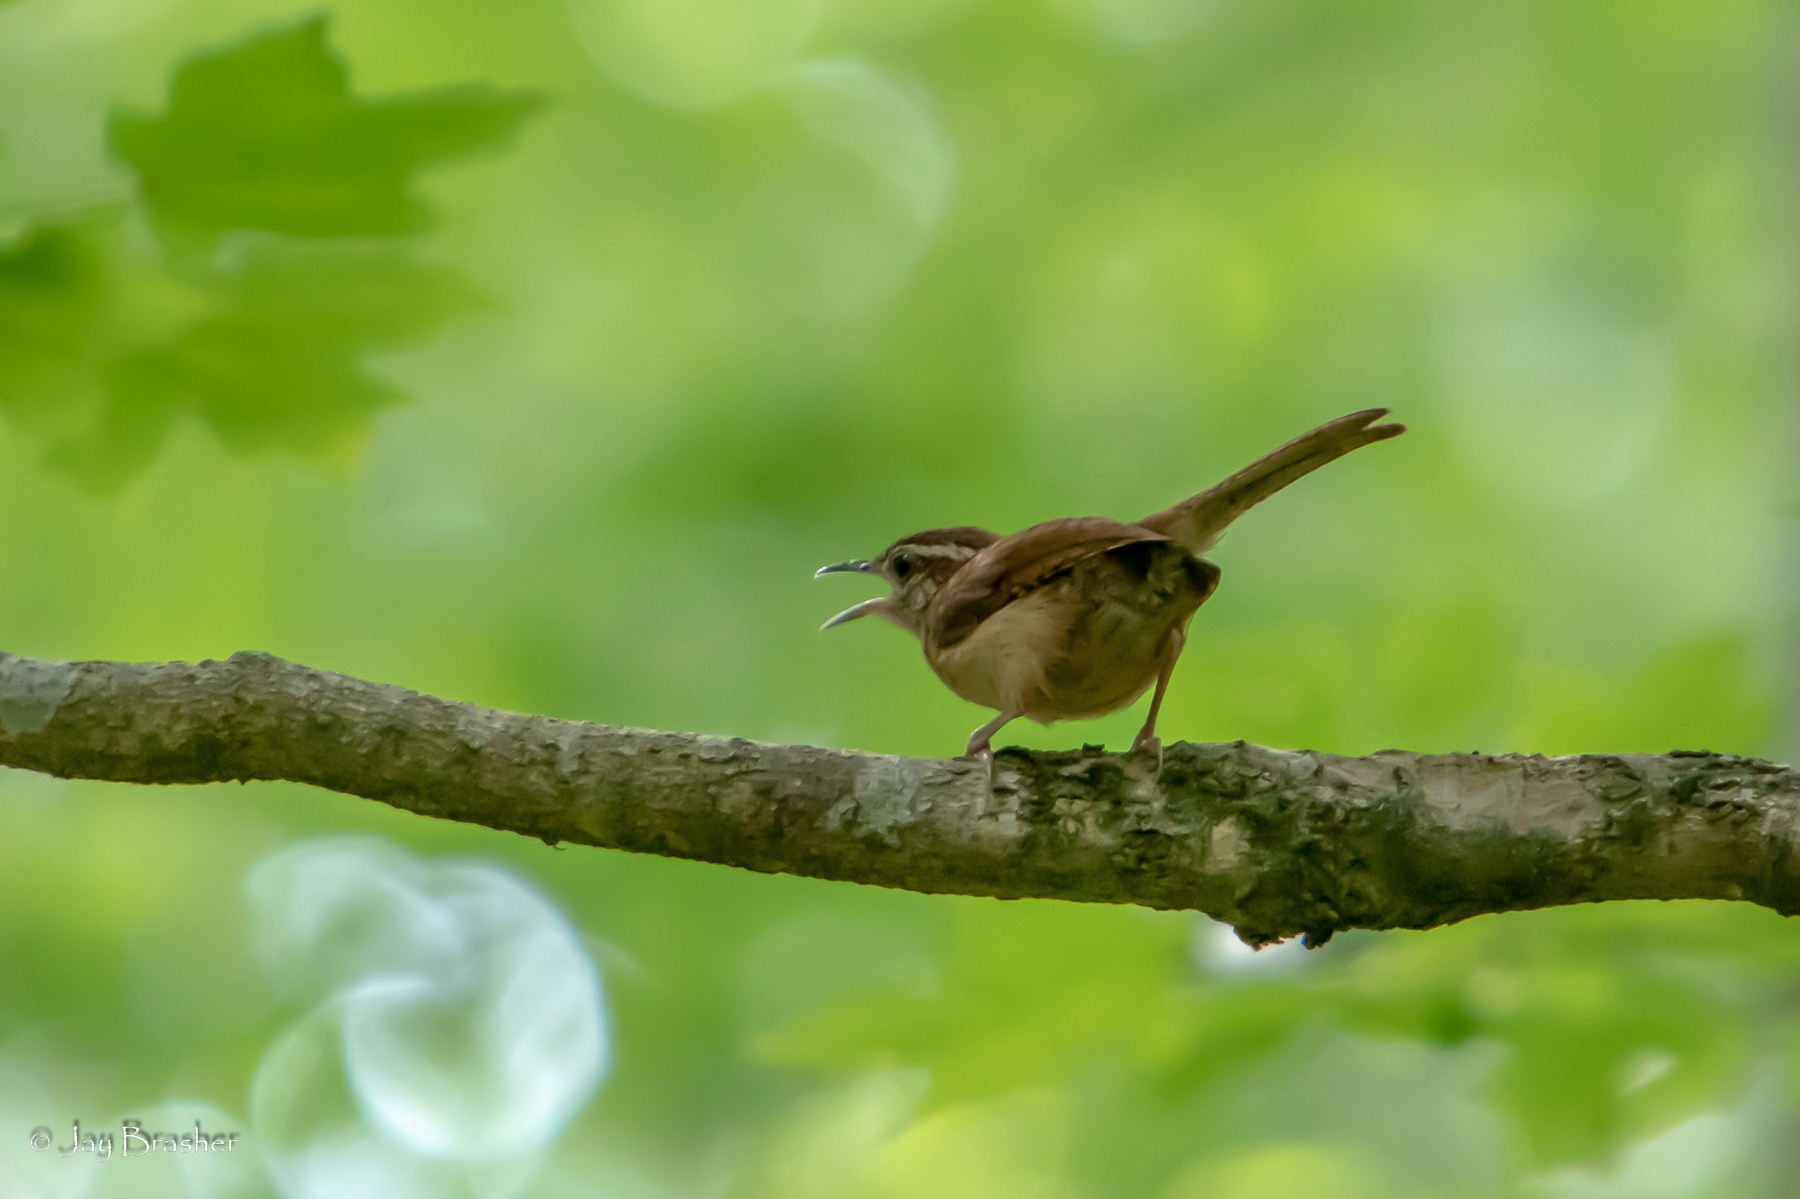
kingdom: Animalia
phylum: Chordata
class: Aves
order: Passeriformes
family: Troglodytidae
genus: Thryothorus
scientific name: Thryothorus ludovicianus
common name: Carolina wren
